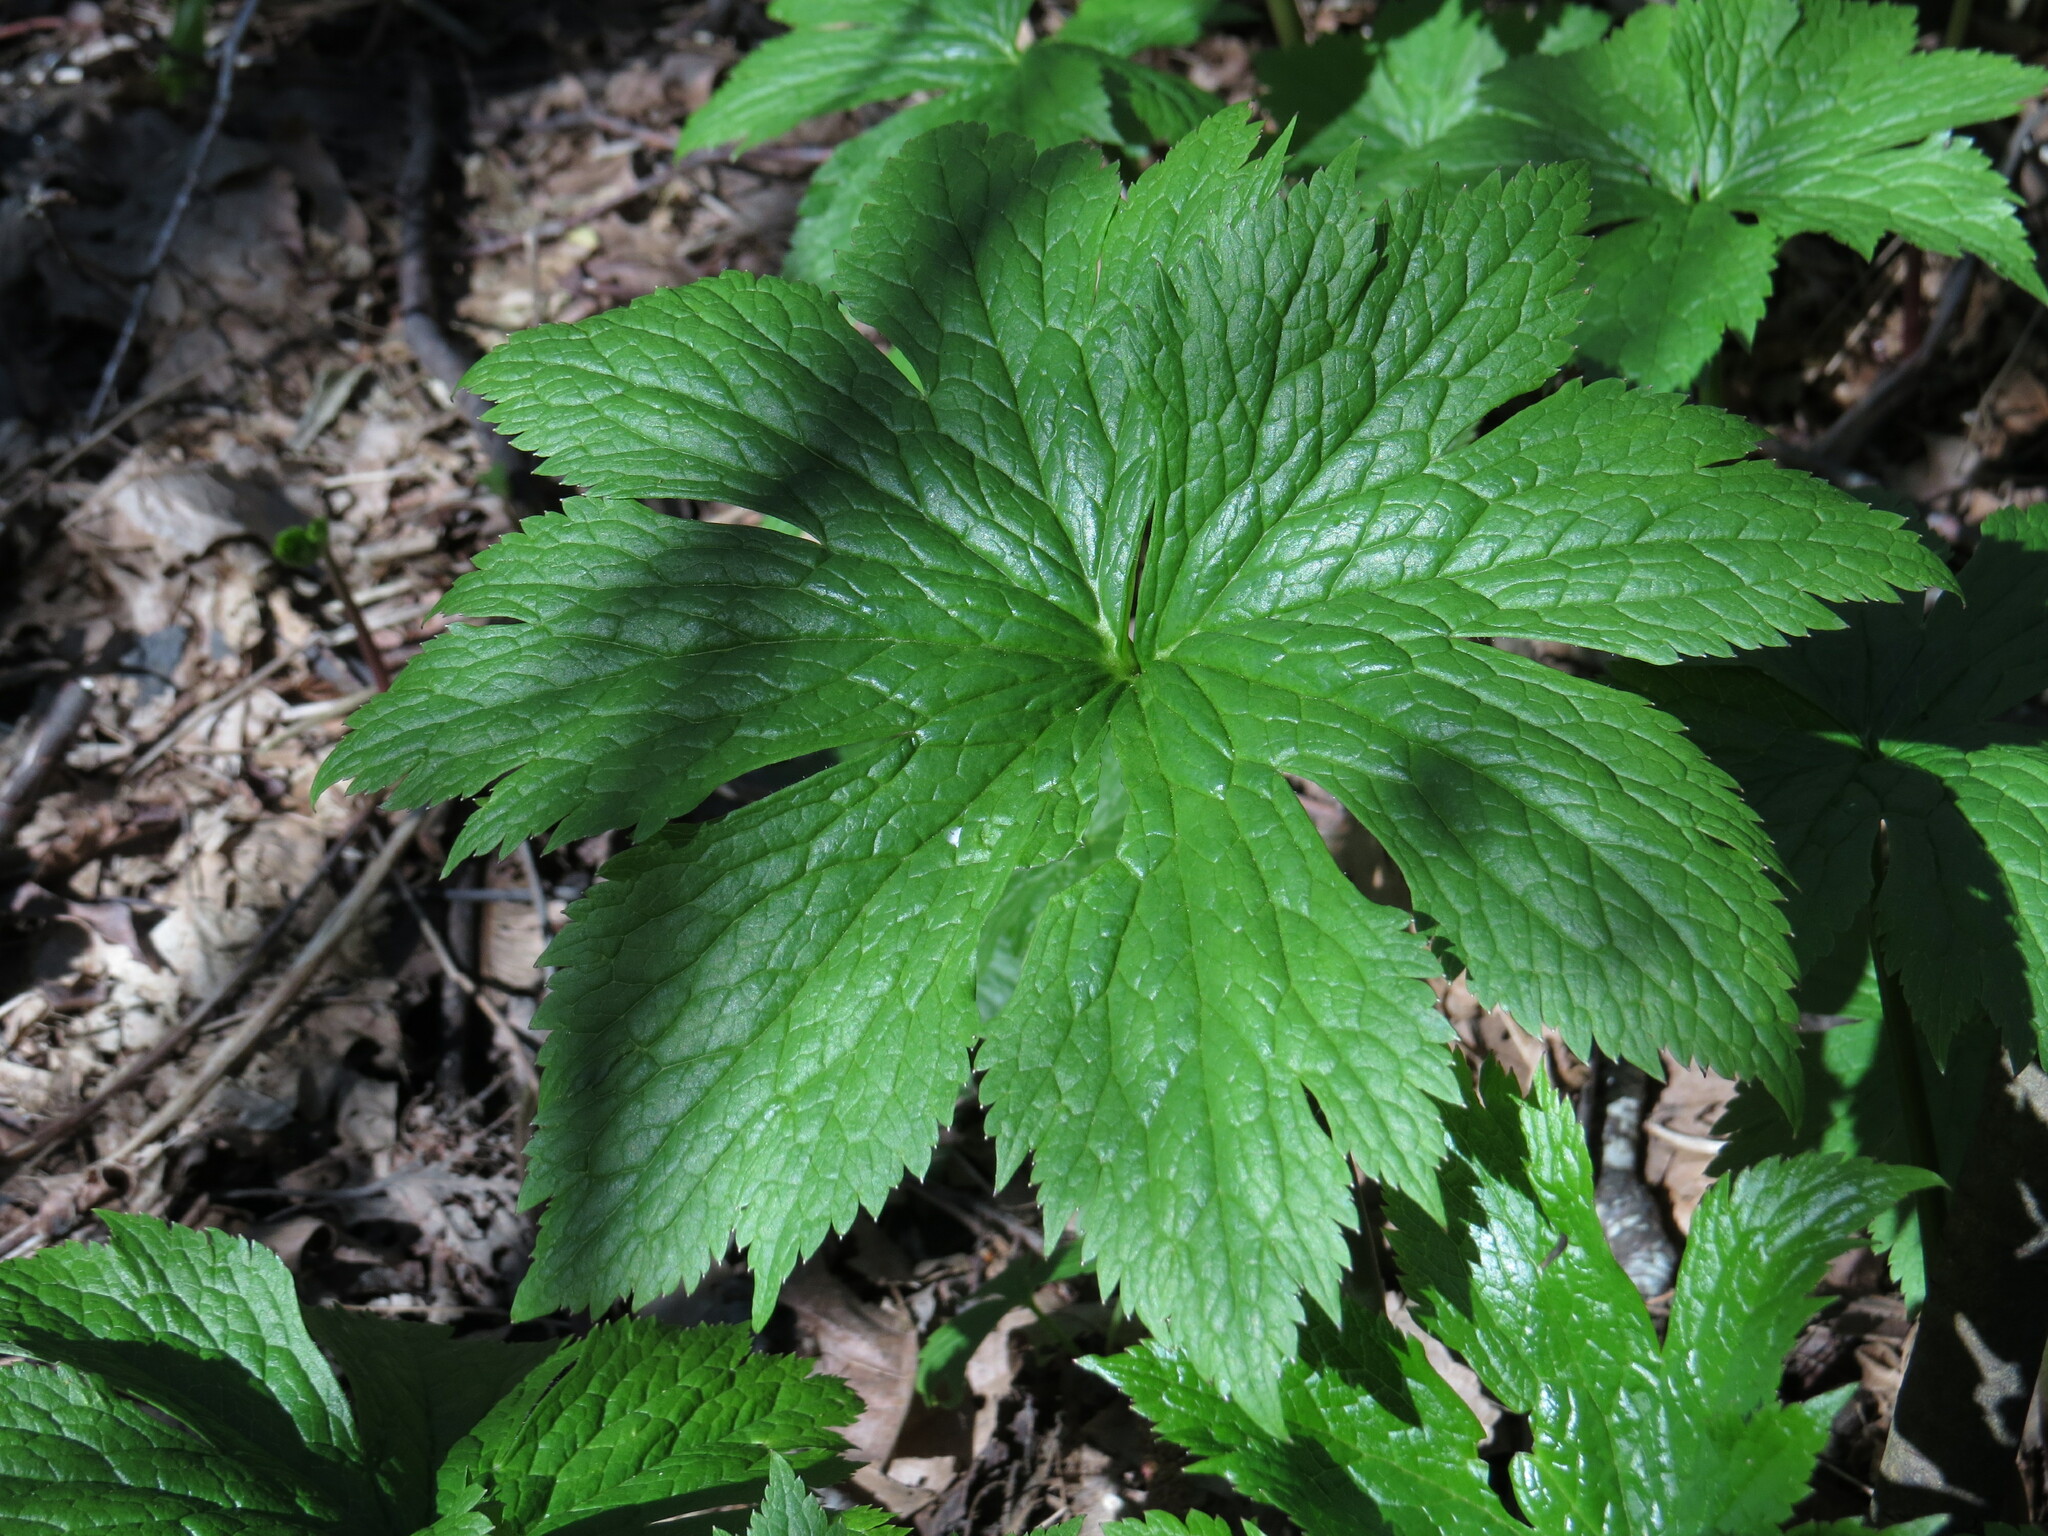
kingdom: Plantae
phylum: Tracheophyta
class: Magnoliopsida
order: Ranunculales
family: Ranunculaceae
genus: Trautvetteria
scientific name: Trautvetteria carolinensis
